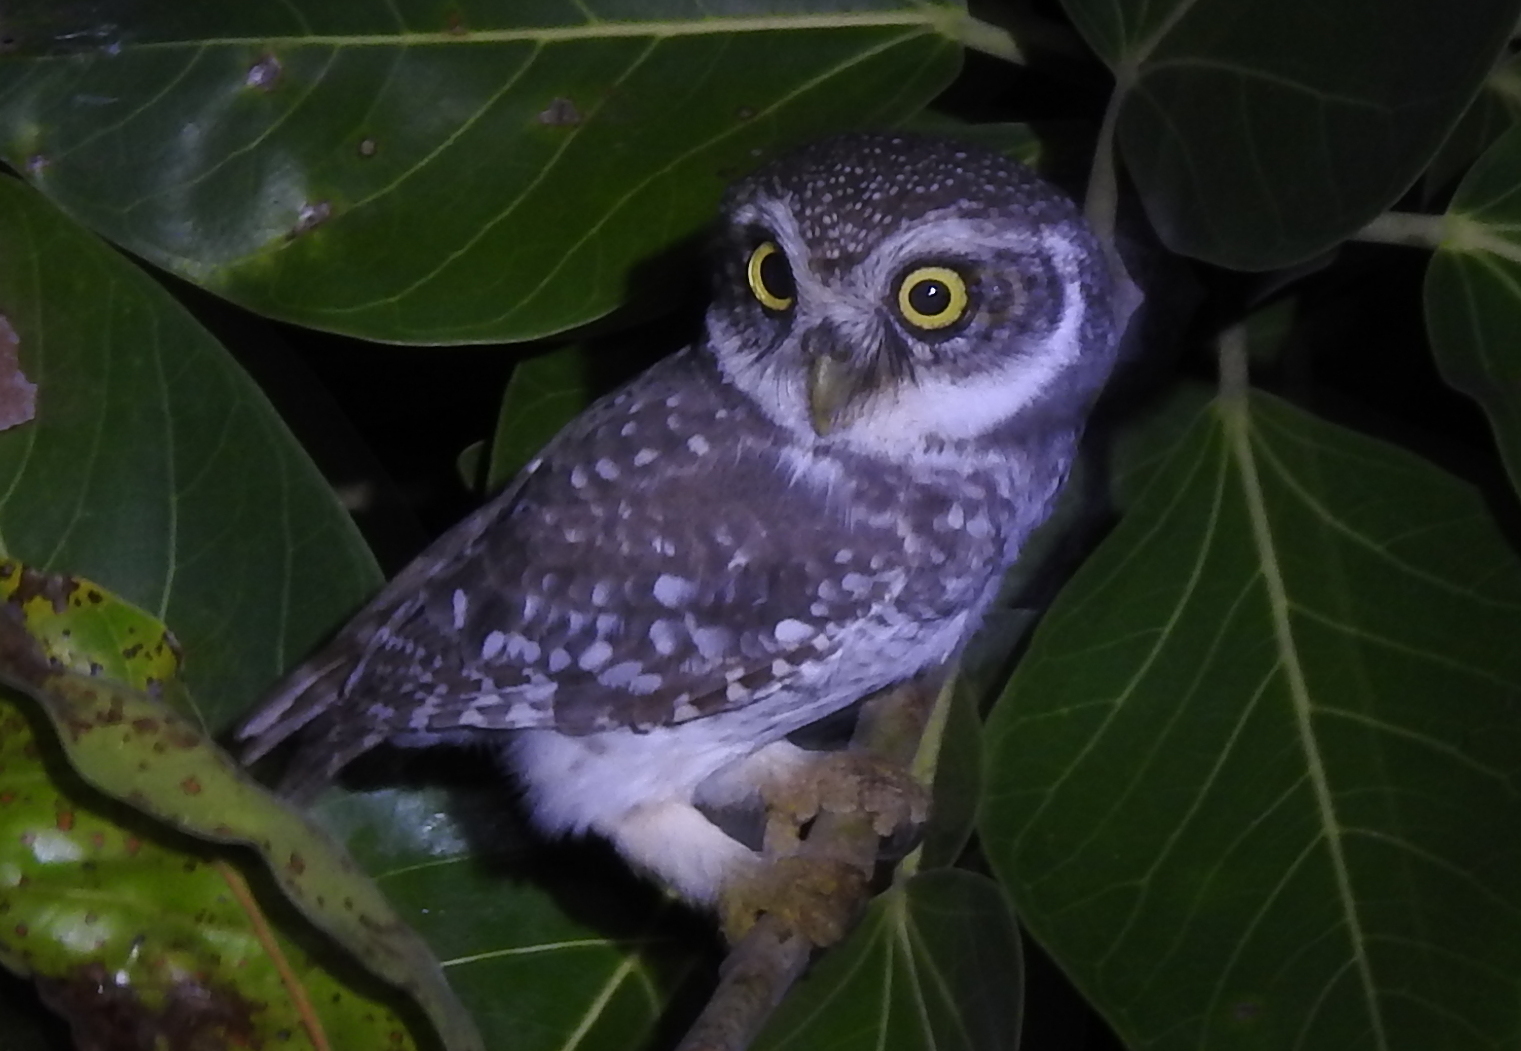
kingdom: Animalia
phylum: Chordata
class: Aves
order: Strigiformes
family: Strigidae
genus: Athene
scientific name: Athene brama
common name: Spotted owlet
